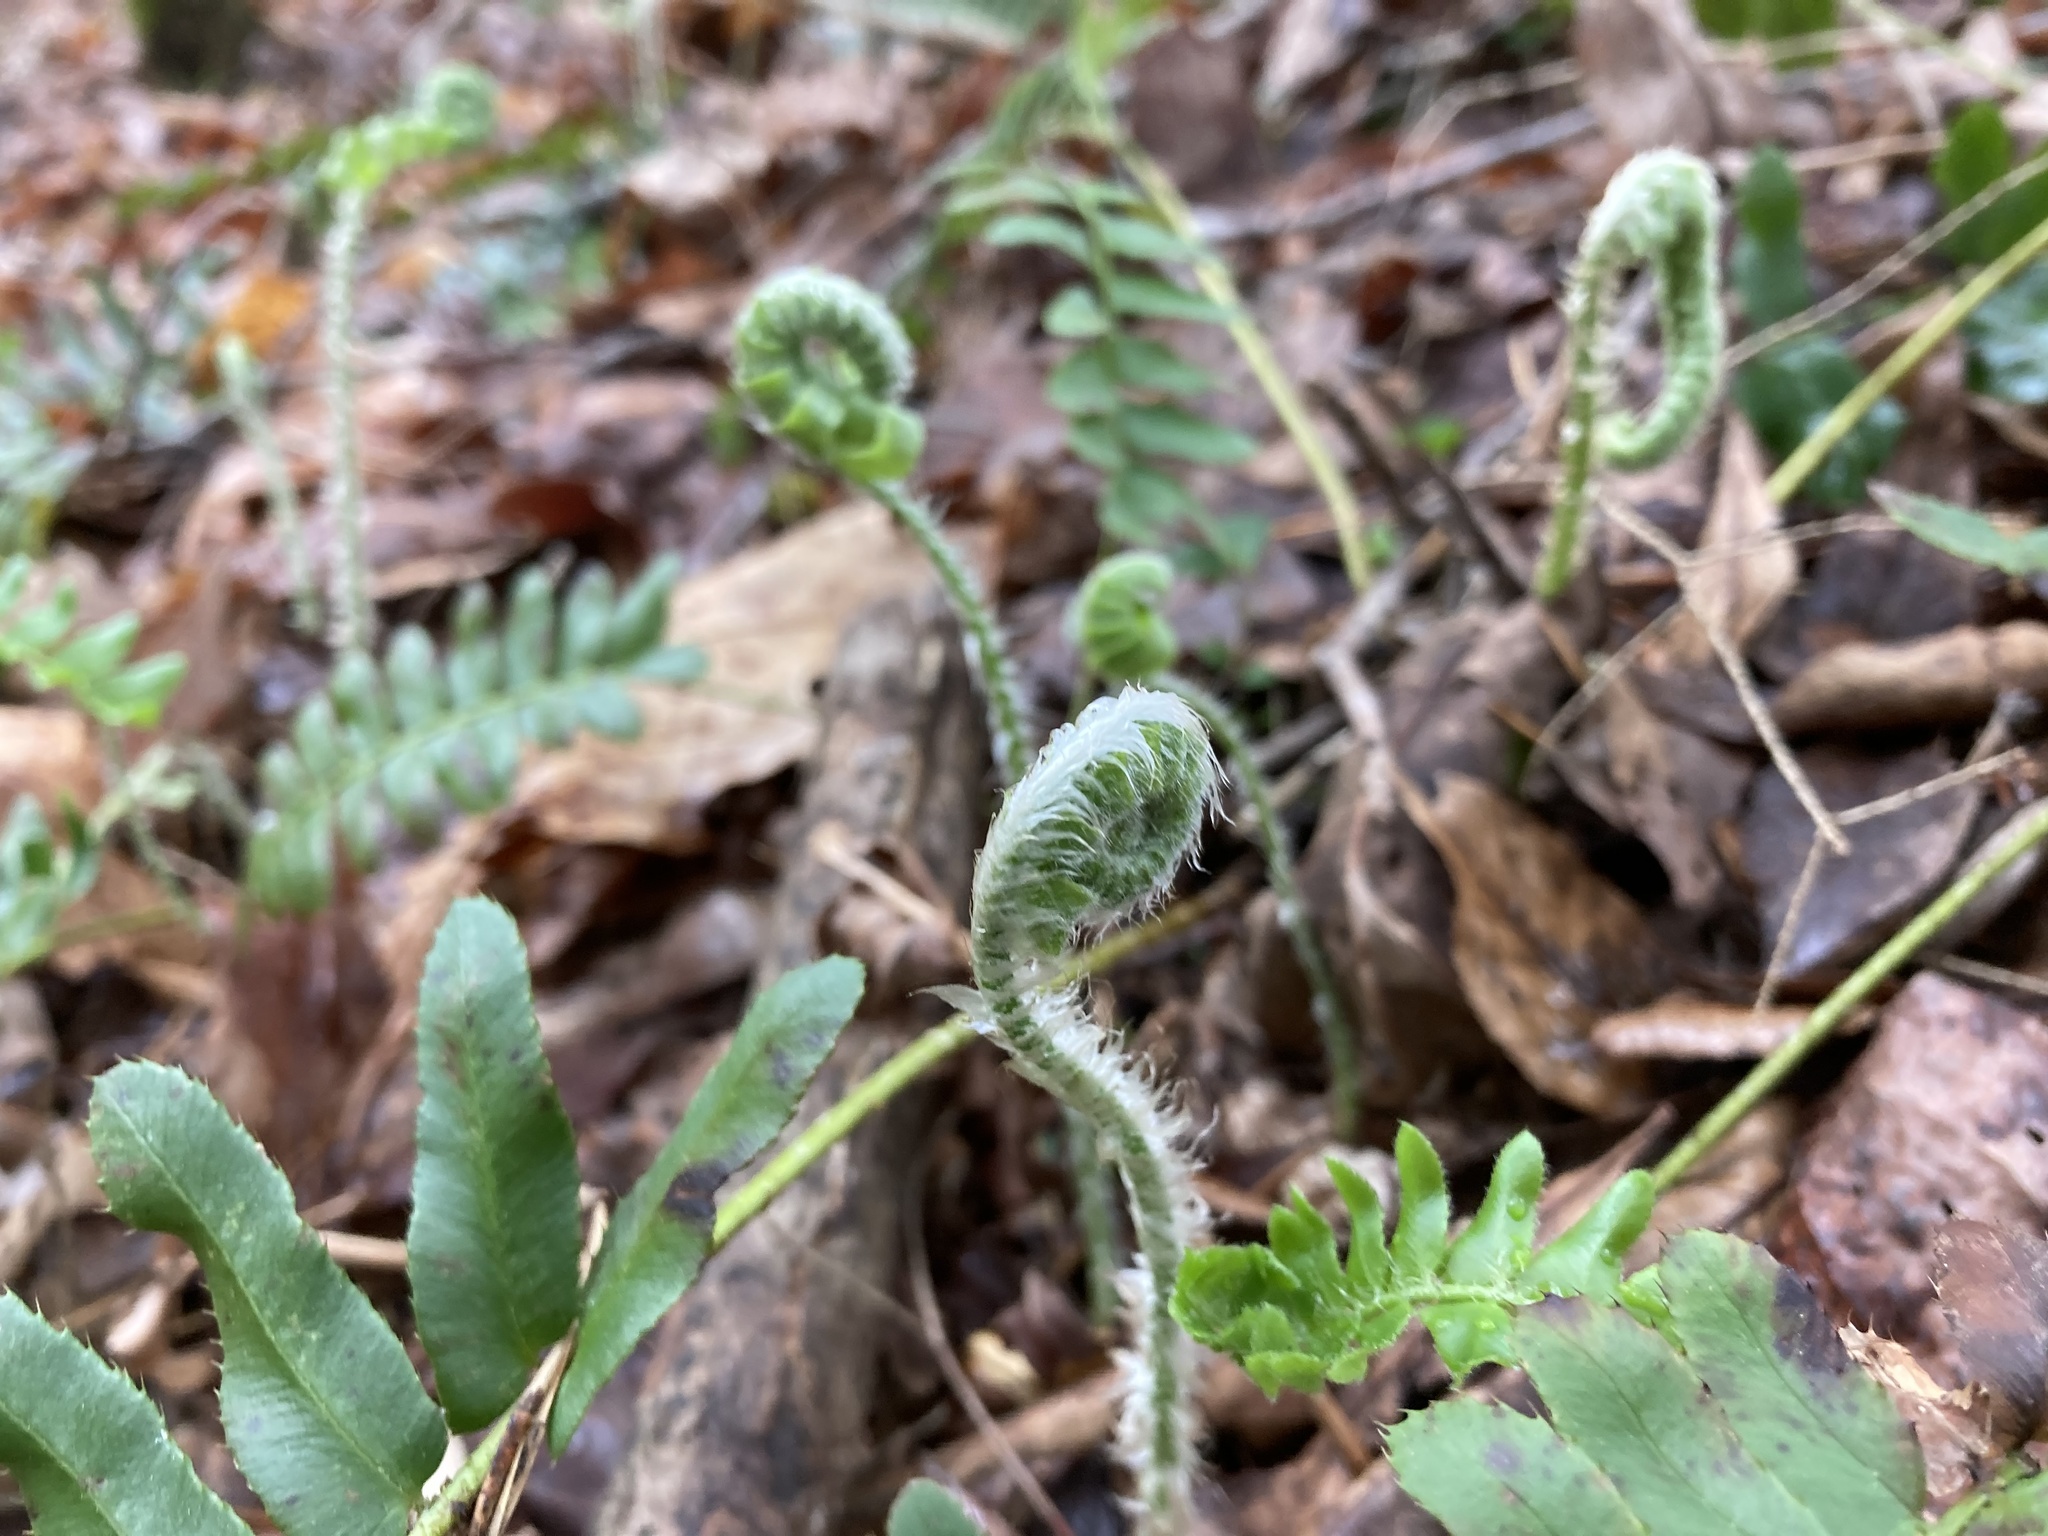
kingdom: Plantae
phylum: Tracheophyta
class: Polypodiopsida
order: Polypodiales
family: Dryopteridaceae
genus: Polystichum
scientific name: Polystichum acrostichoides
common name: Christmas fern
